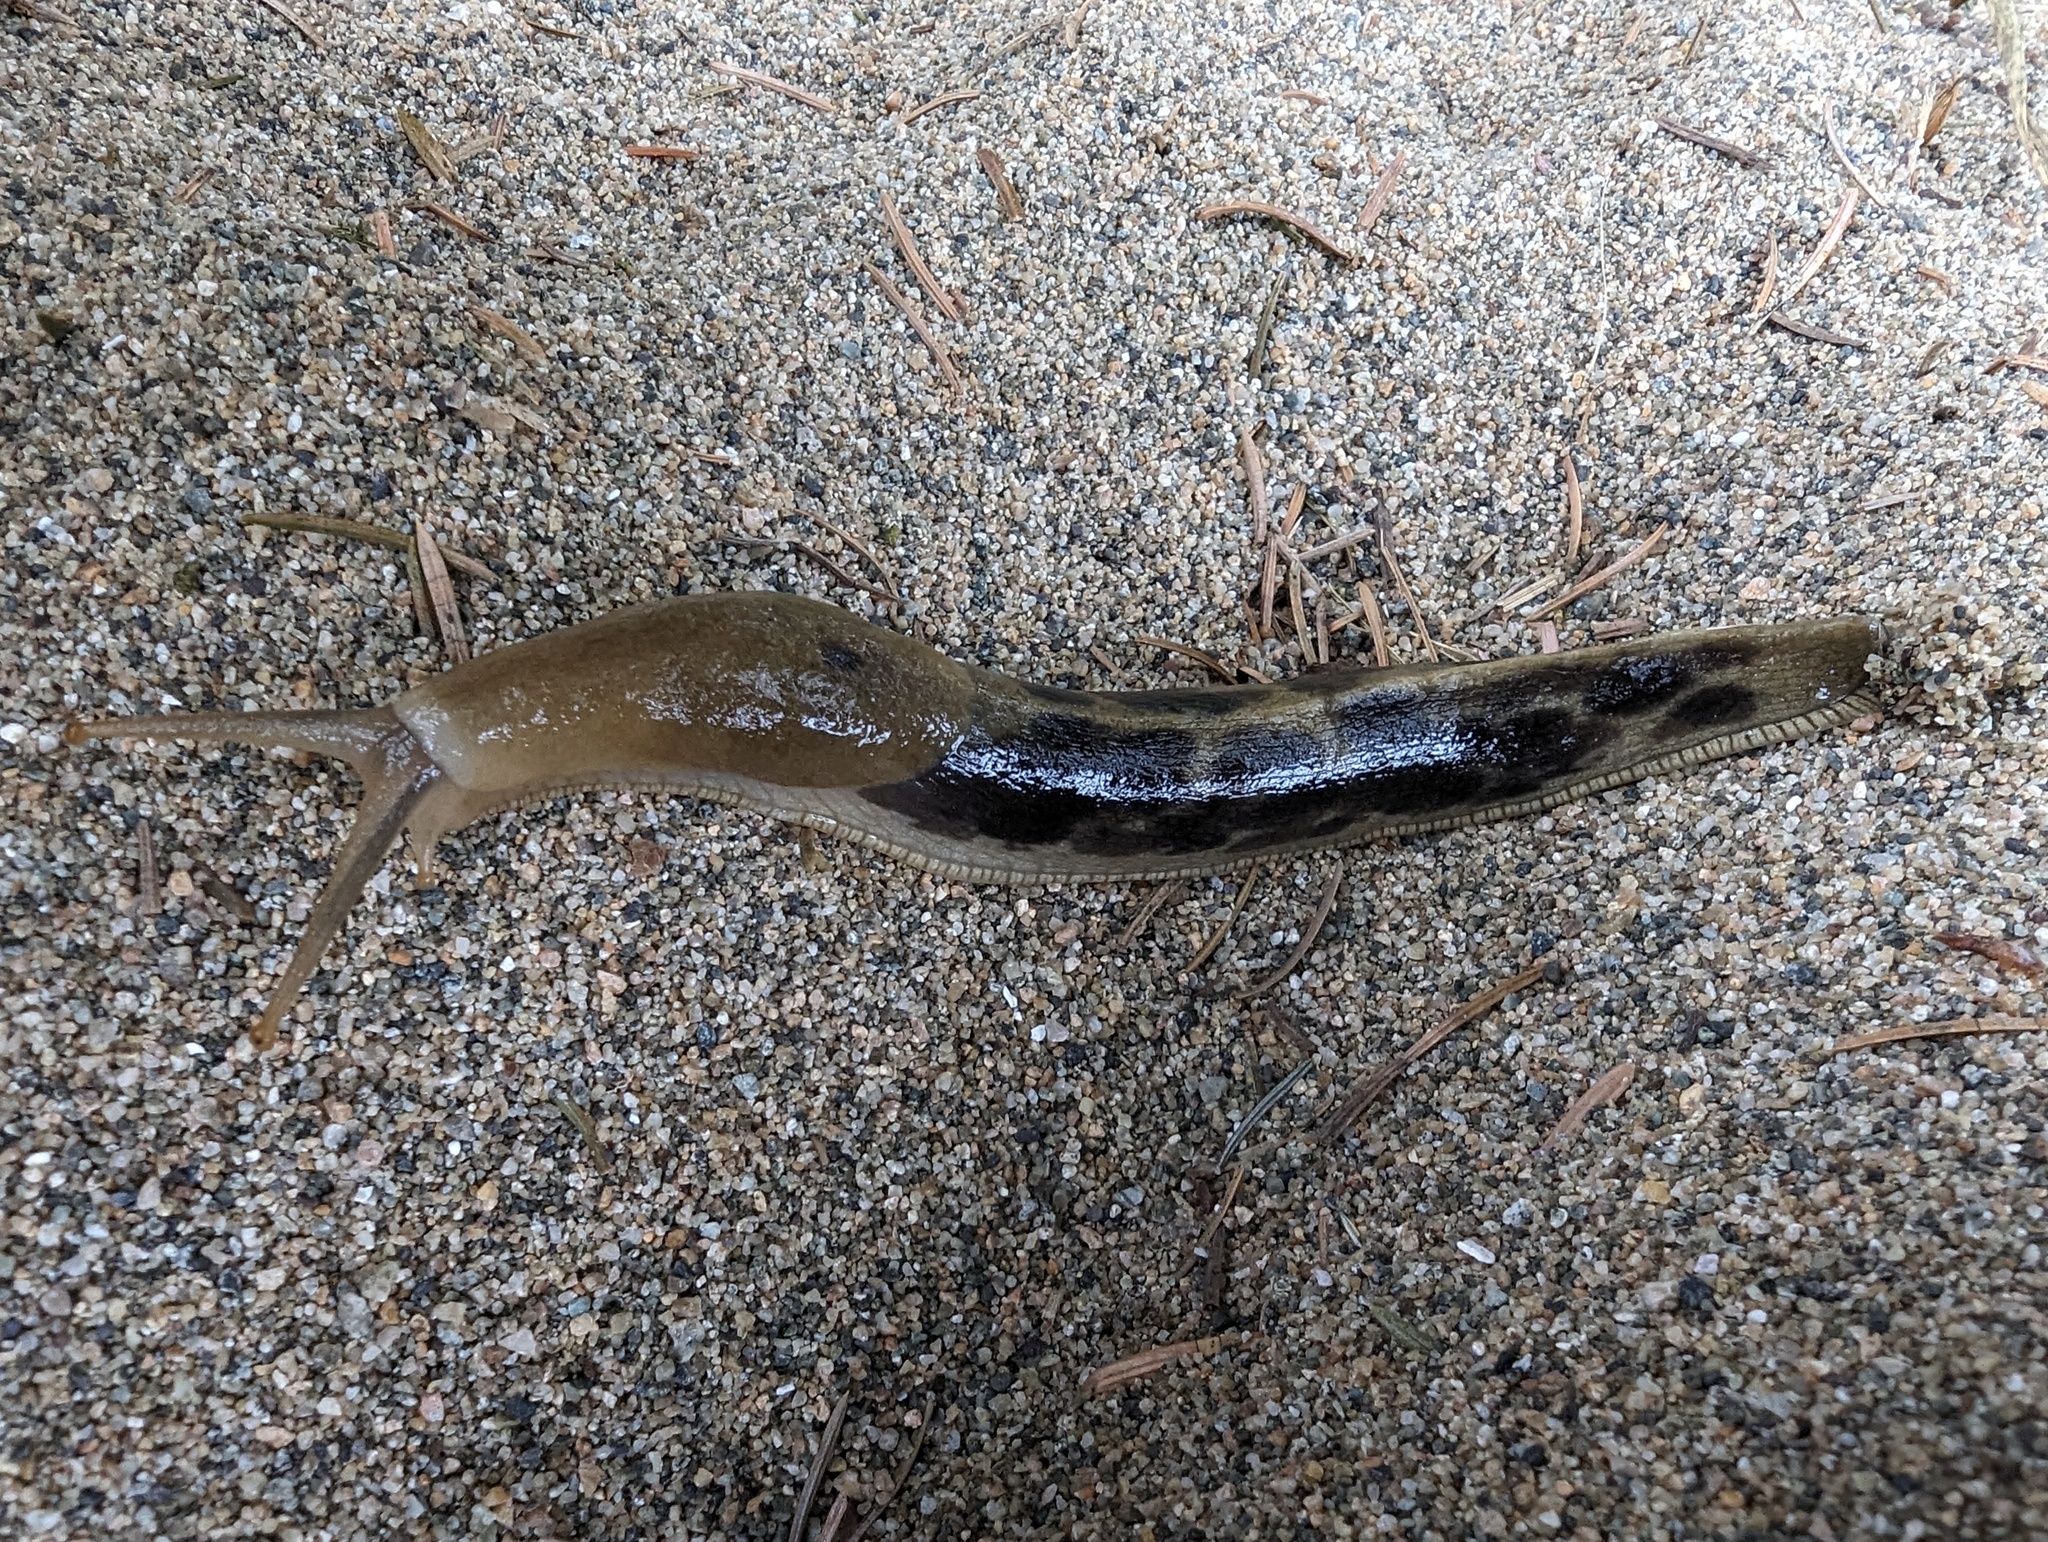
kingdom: Animalia
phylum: Mollusca
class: Gastropoda
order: Stylommatophora
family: Ariolimacidae
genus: Ariolimax
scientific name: Ariolimax columbianus
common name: Pacific banana slug
